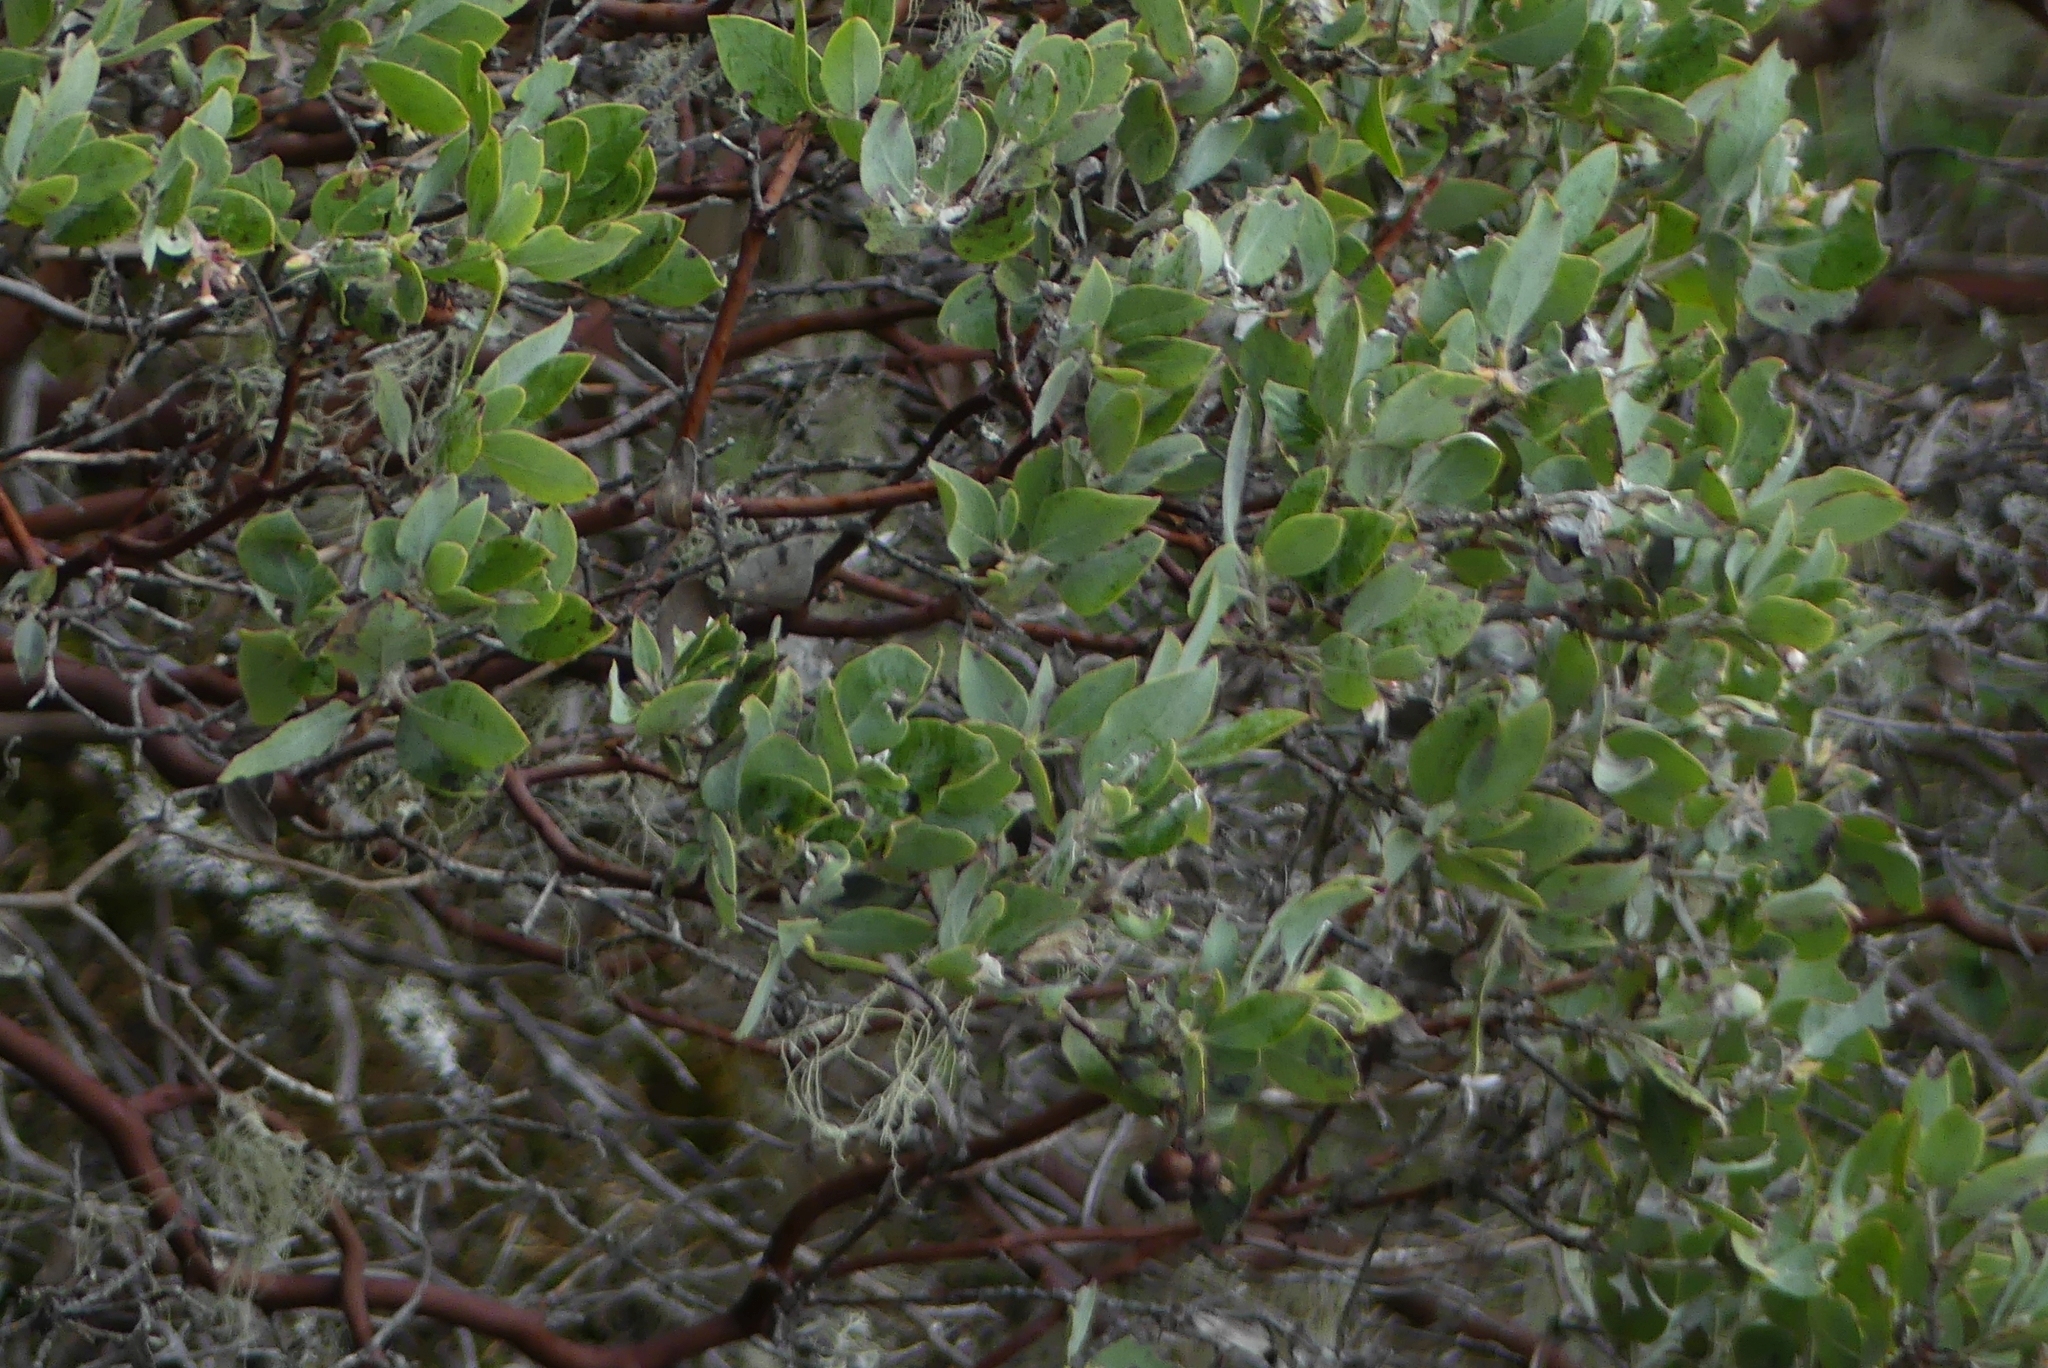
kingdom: Plantae
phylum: Tracheophyta
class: Magnoliopsida
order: Ericales
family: Ericaceae
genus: Arctostaphylos
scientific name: Arctostaphylos columbiana
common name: Bristly bearberry
